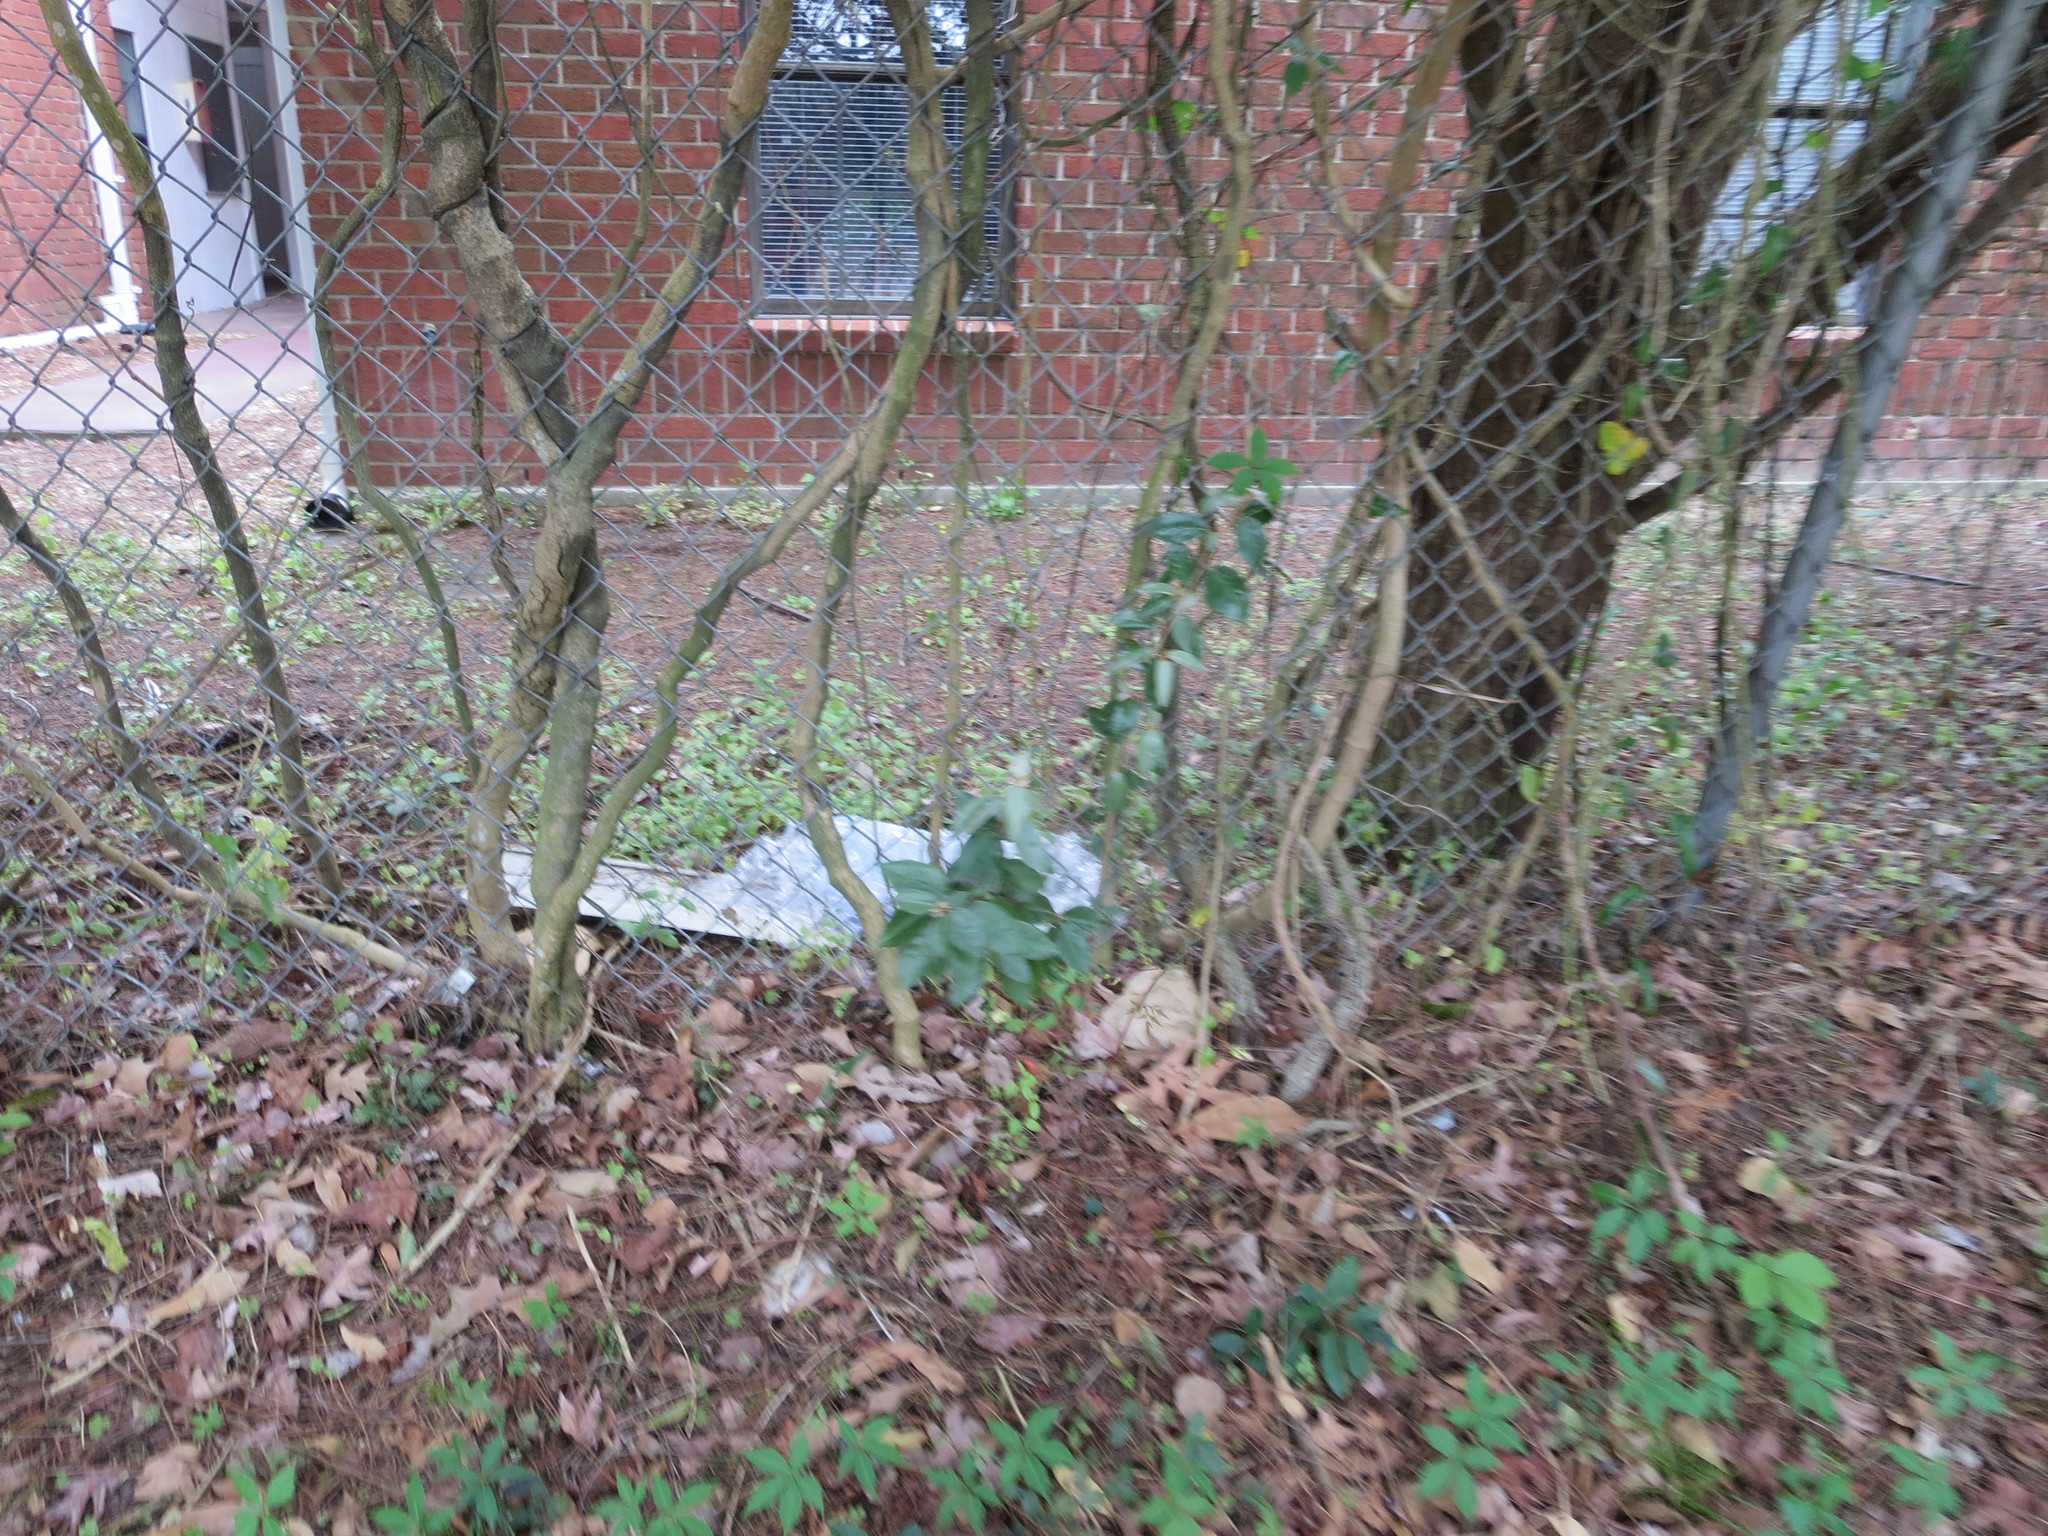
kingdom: Plantae
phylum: Tracheophyta
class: Magnoliopsida
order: Rosales
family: Elaeagnaceae
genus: Elaeagnus
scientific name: Elaeagnus pungens
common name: Spiny oleaster
